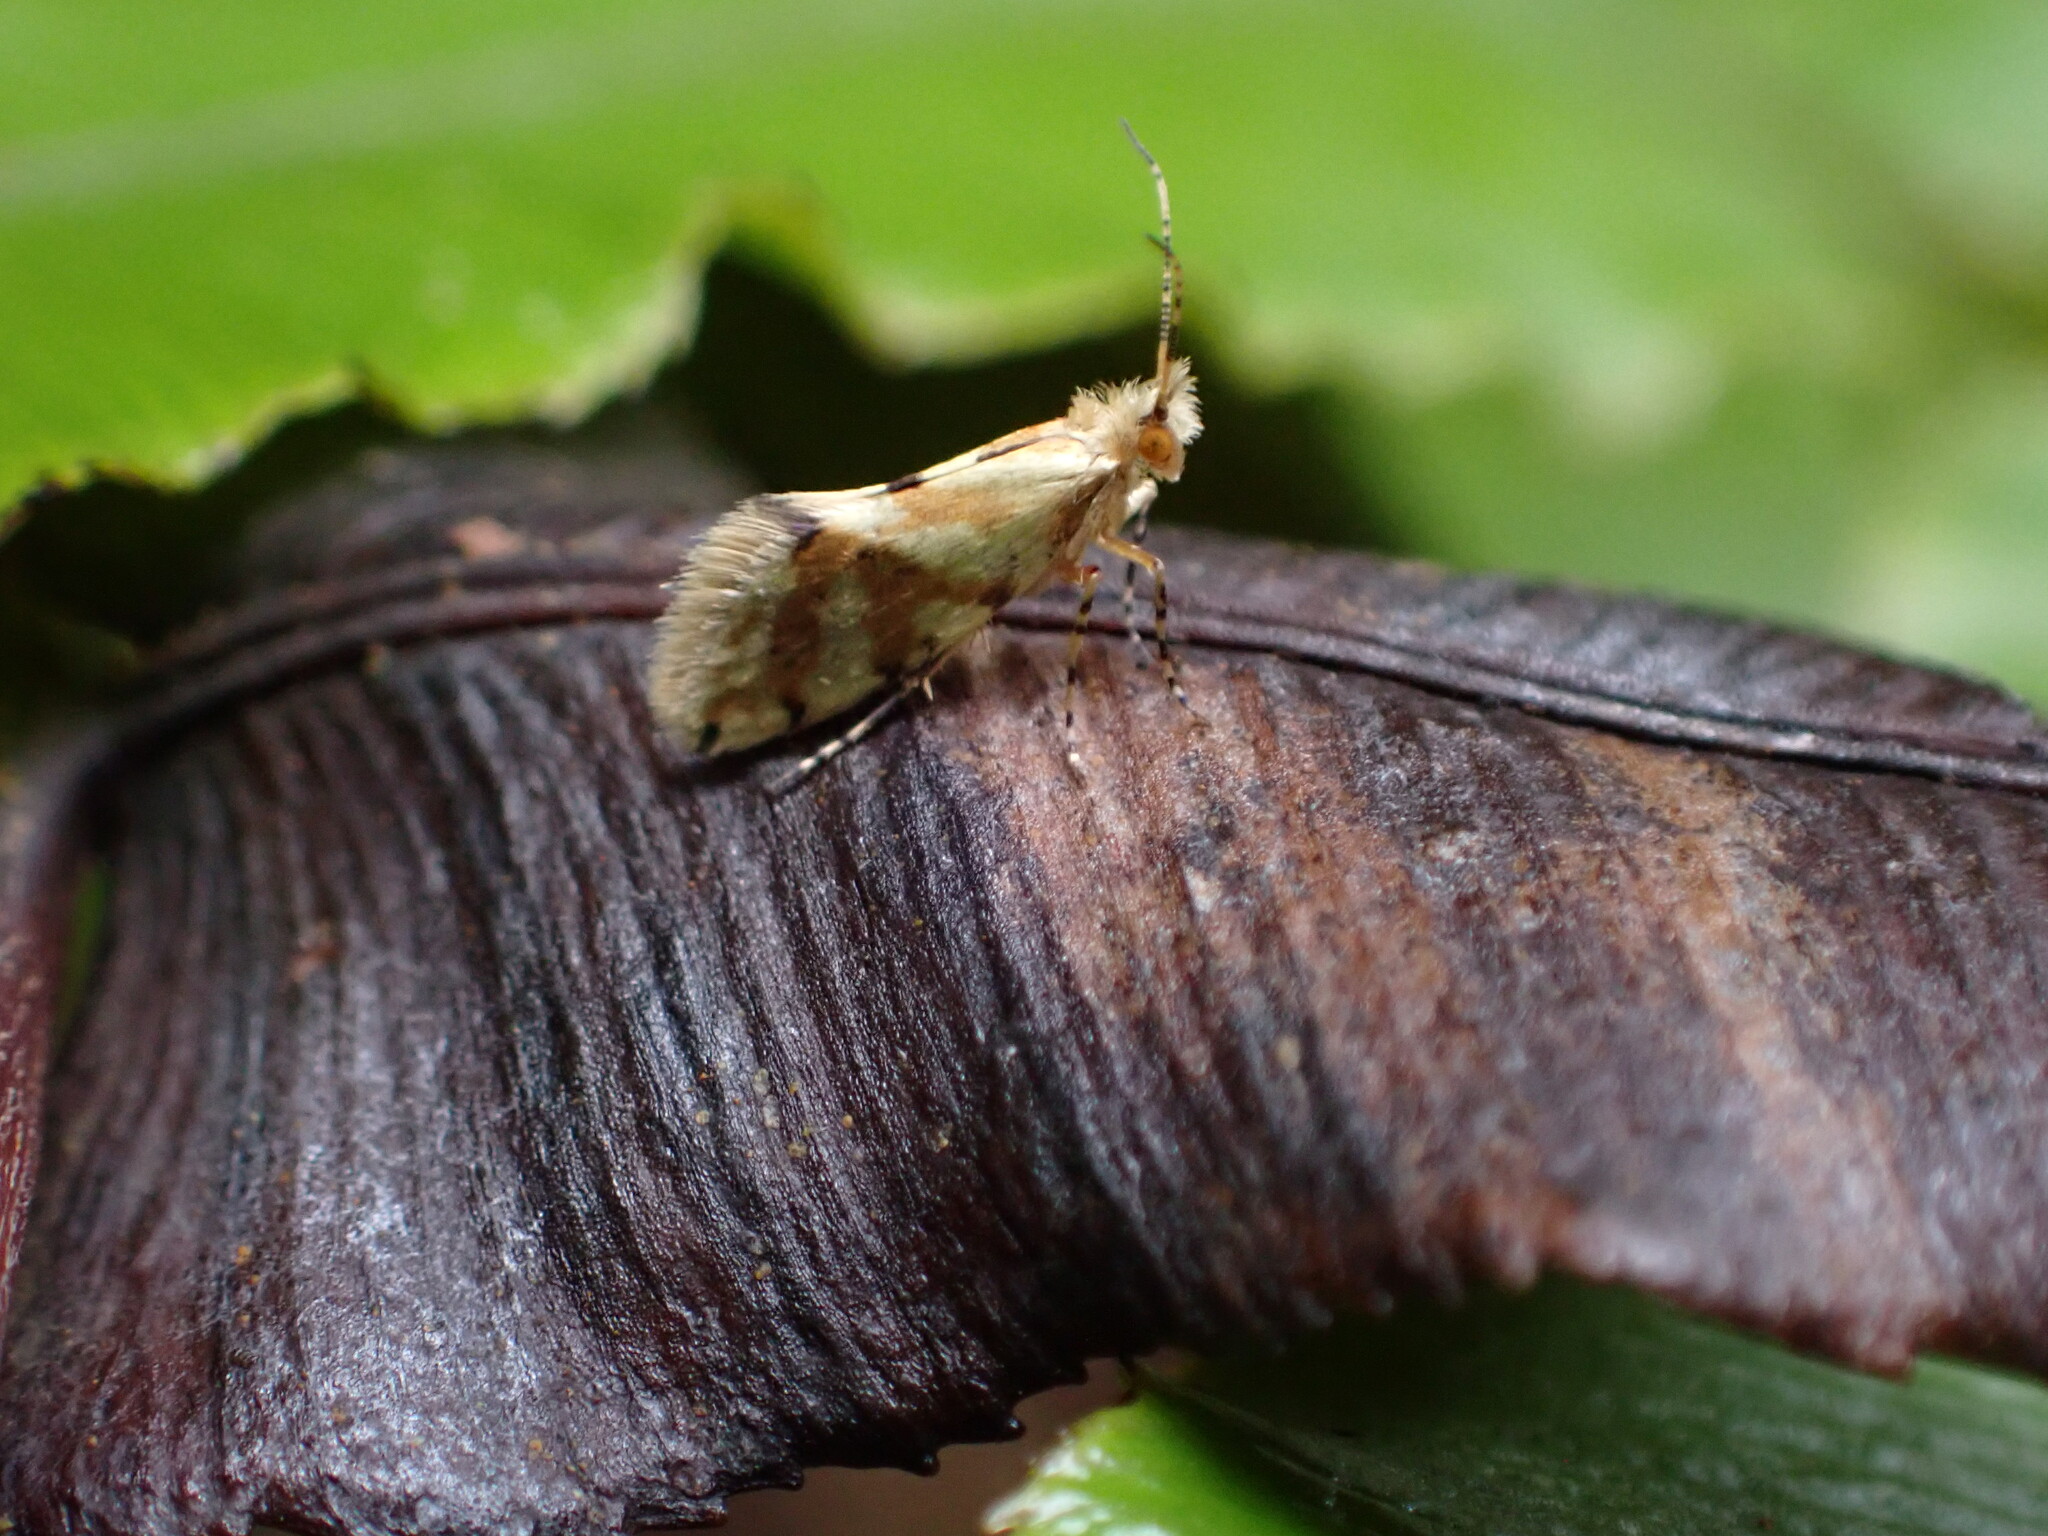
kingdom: Animalia
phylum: Arthropoda
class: Insecta
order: Lepidoptera
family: Micropterigidae
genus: Sabatinca
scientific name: Sabatinca chalcophanes
